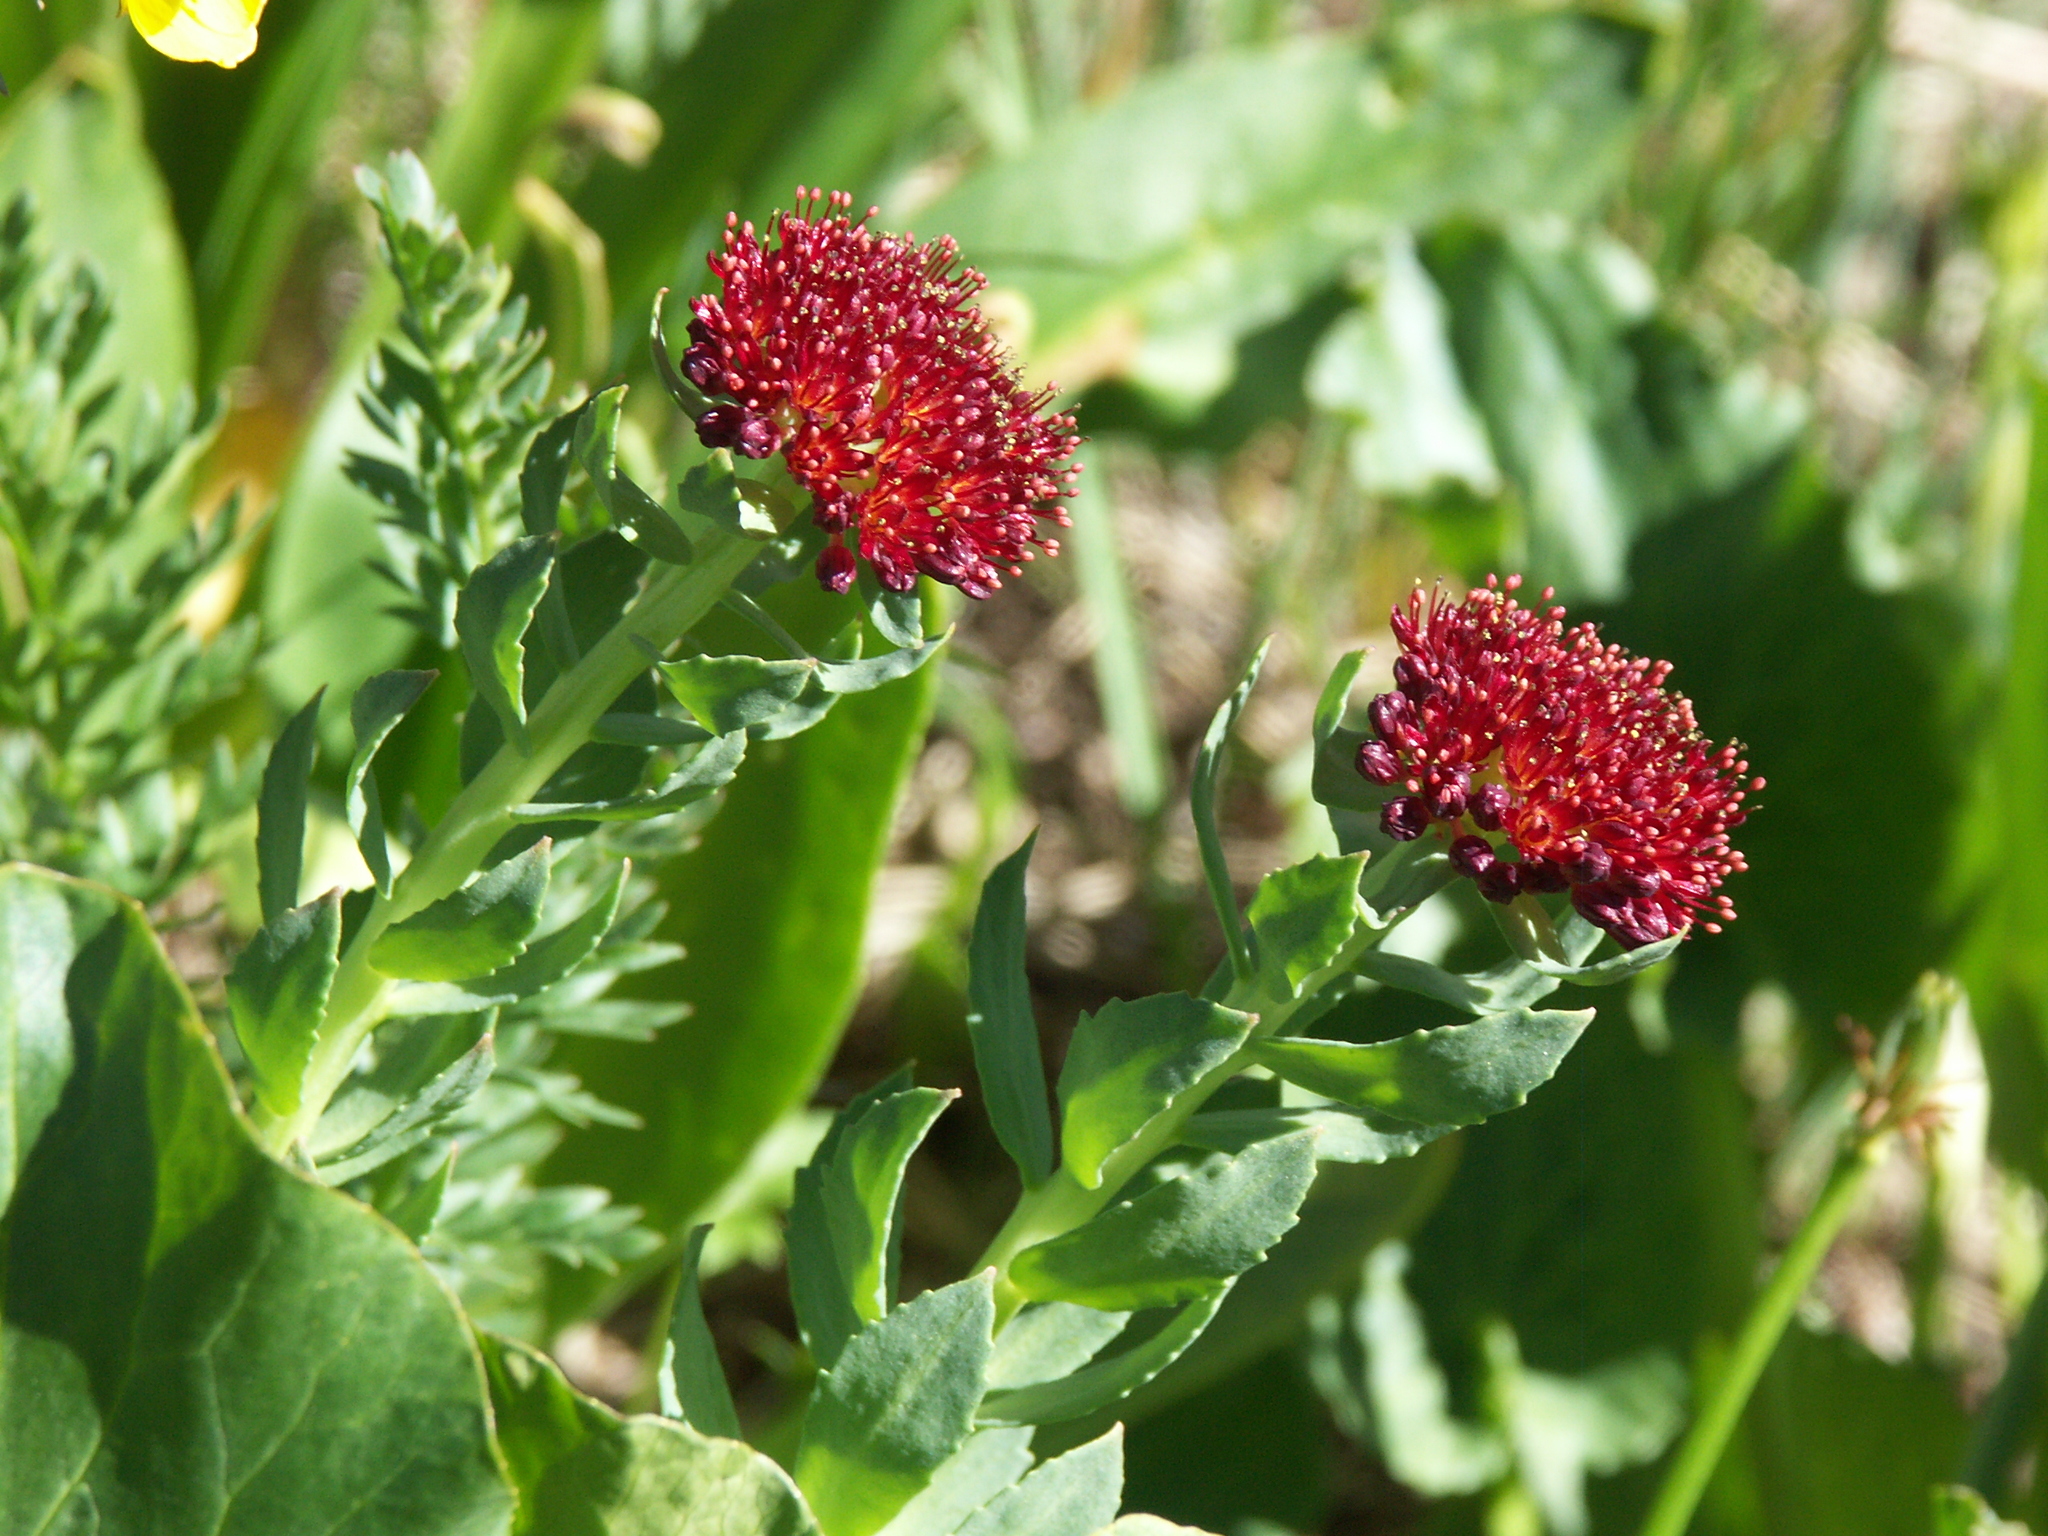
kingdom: Plantae
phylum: Tracheophyta
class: Magnoliopsida
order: Saxifragales
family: Crassulaceae
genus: Rhodiola
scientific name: Rhodiola integrifolia
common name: Western roseroot
